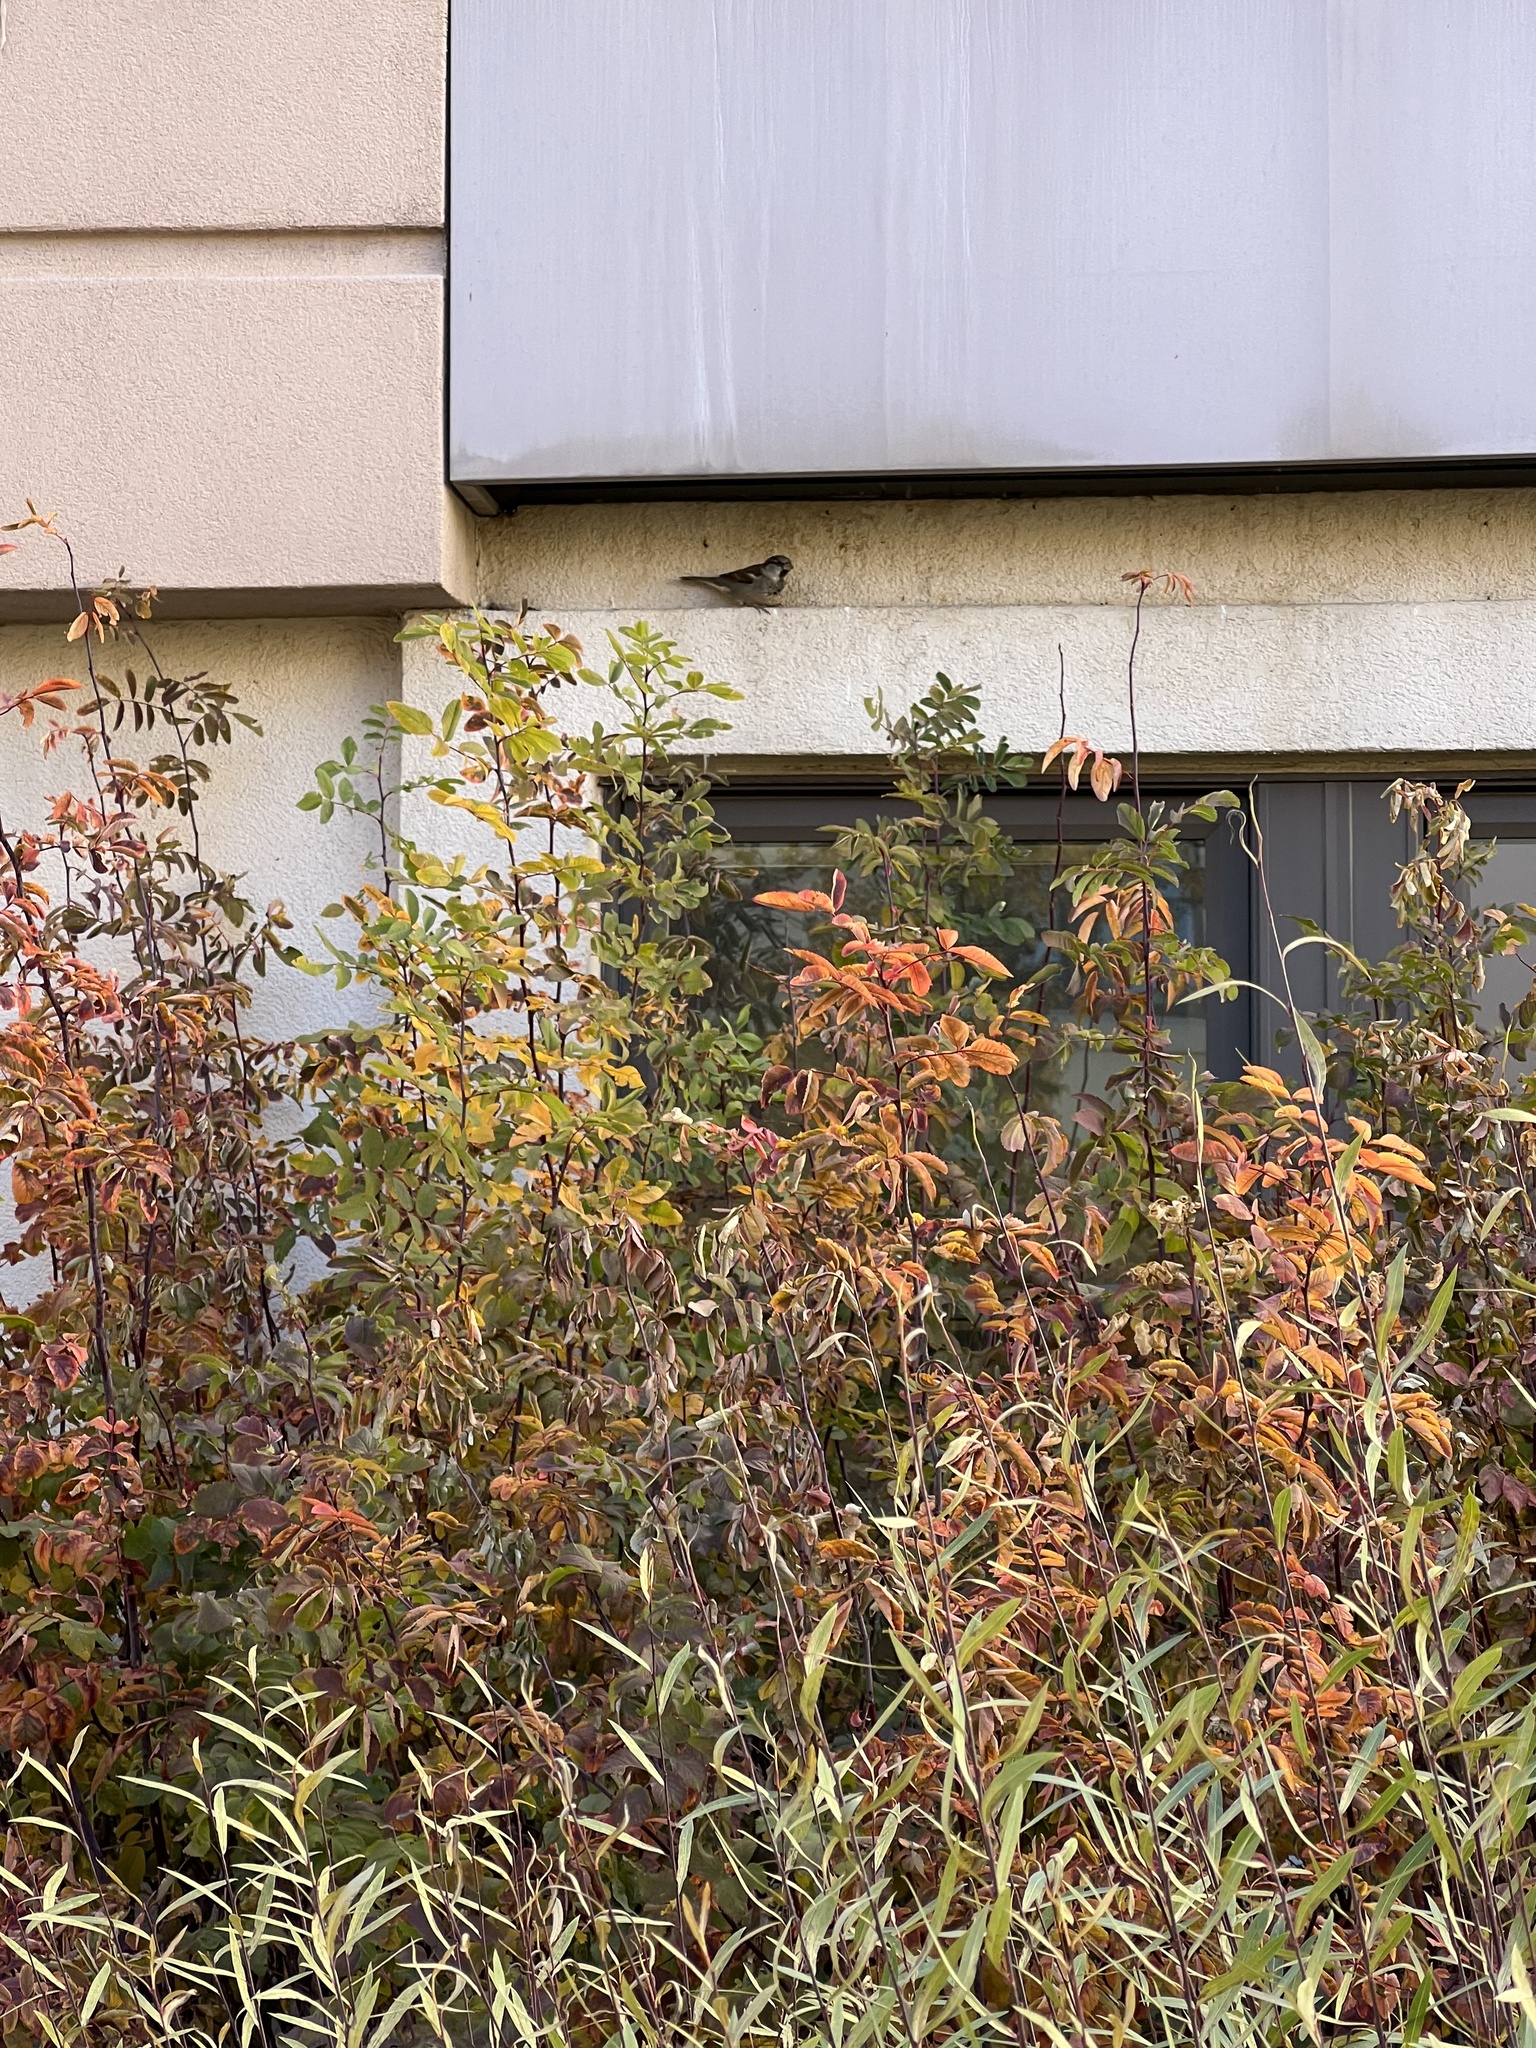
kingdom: Animalia
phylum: Chordata
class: Aves
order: Passeriformes
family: Passeridae
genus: Passer
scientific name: Passer domesticus
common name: House sparrow
